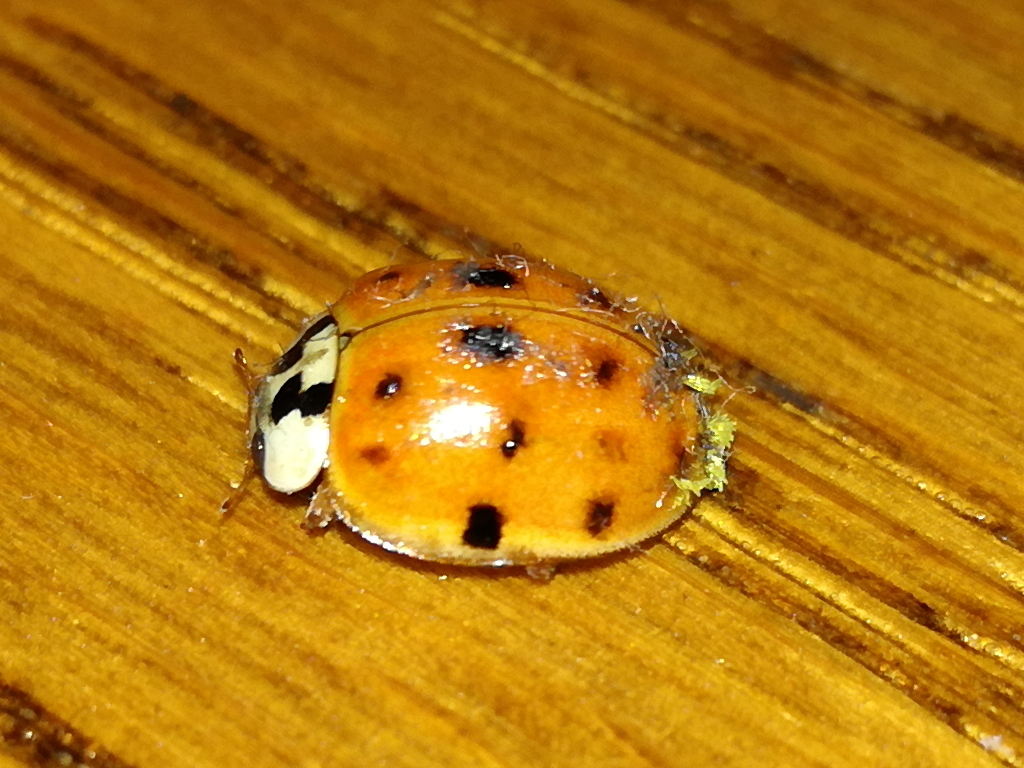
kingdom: Animalia
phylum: Arthropoda
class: Insecta
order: Coleoptera
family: Coccinellidae
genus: Harmonia
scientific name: Harmonia axyridis
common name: Harlequin ladybird
